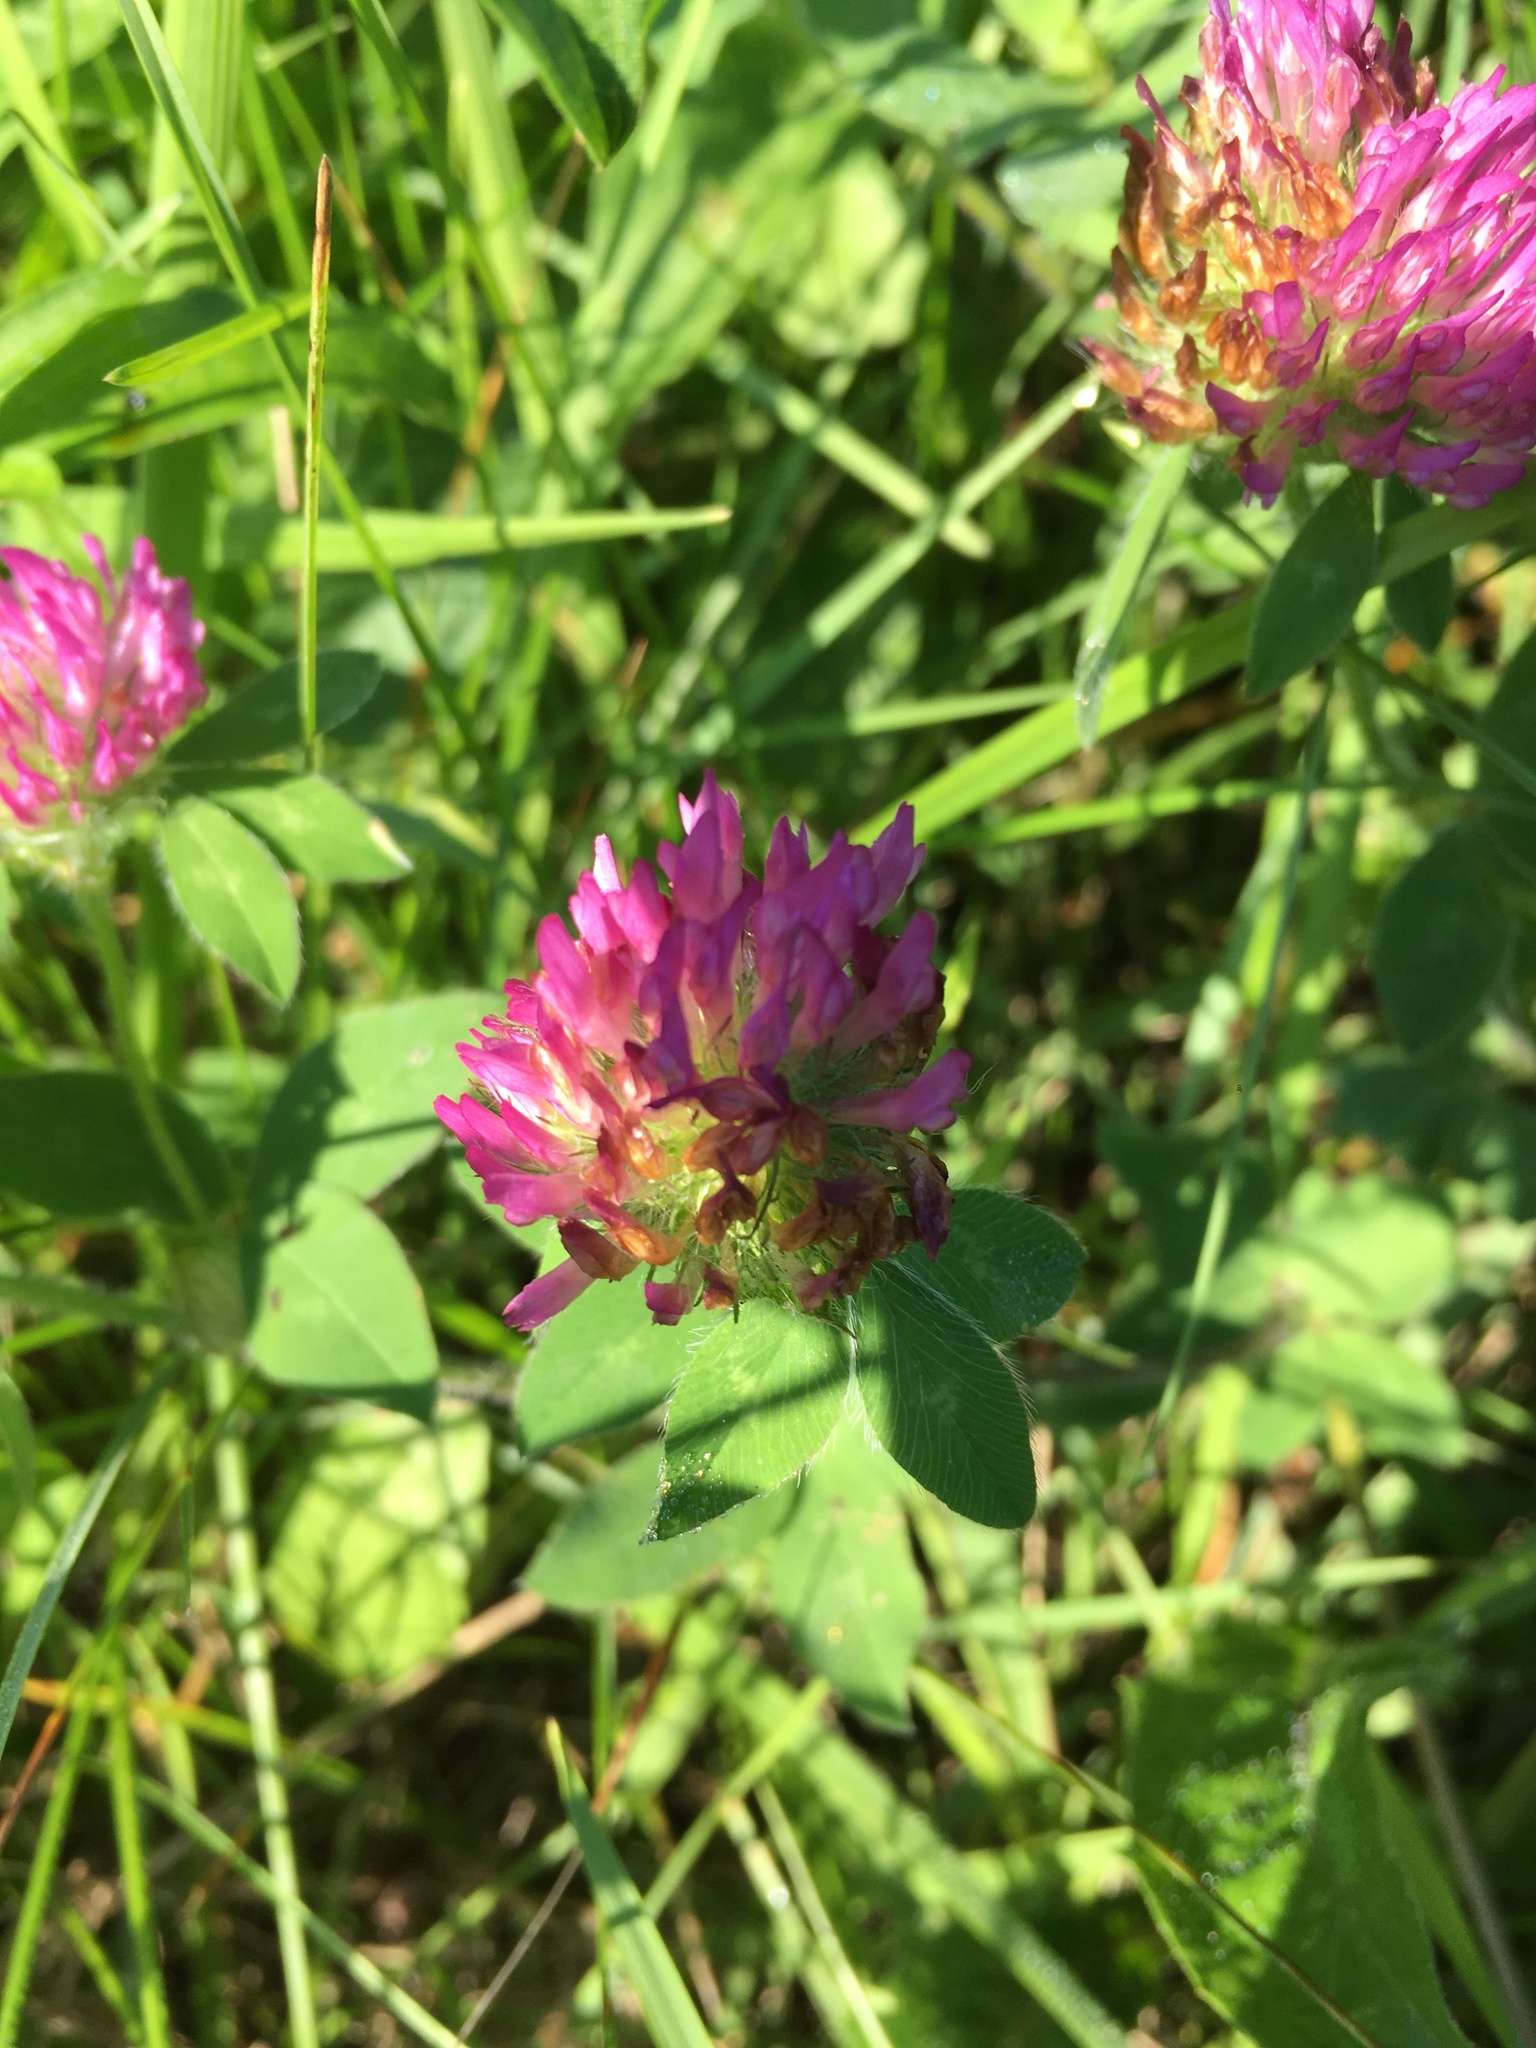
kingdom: Plantae
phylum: Tracheophyta
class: Magnoliopsida
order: Fabales
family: Fabaceae
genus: Trifolium
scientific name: Trifolium pratense
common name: Red clover
